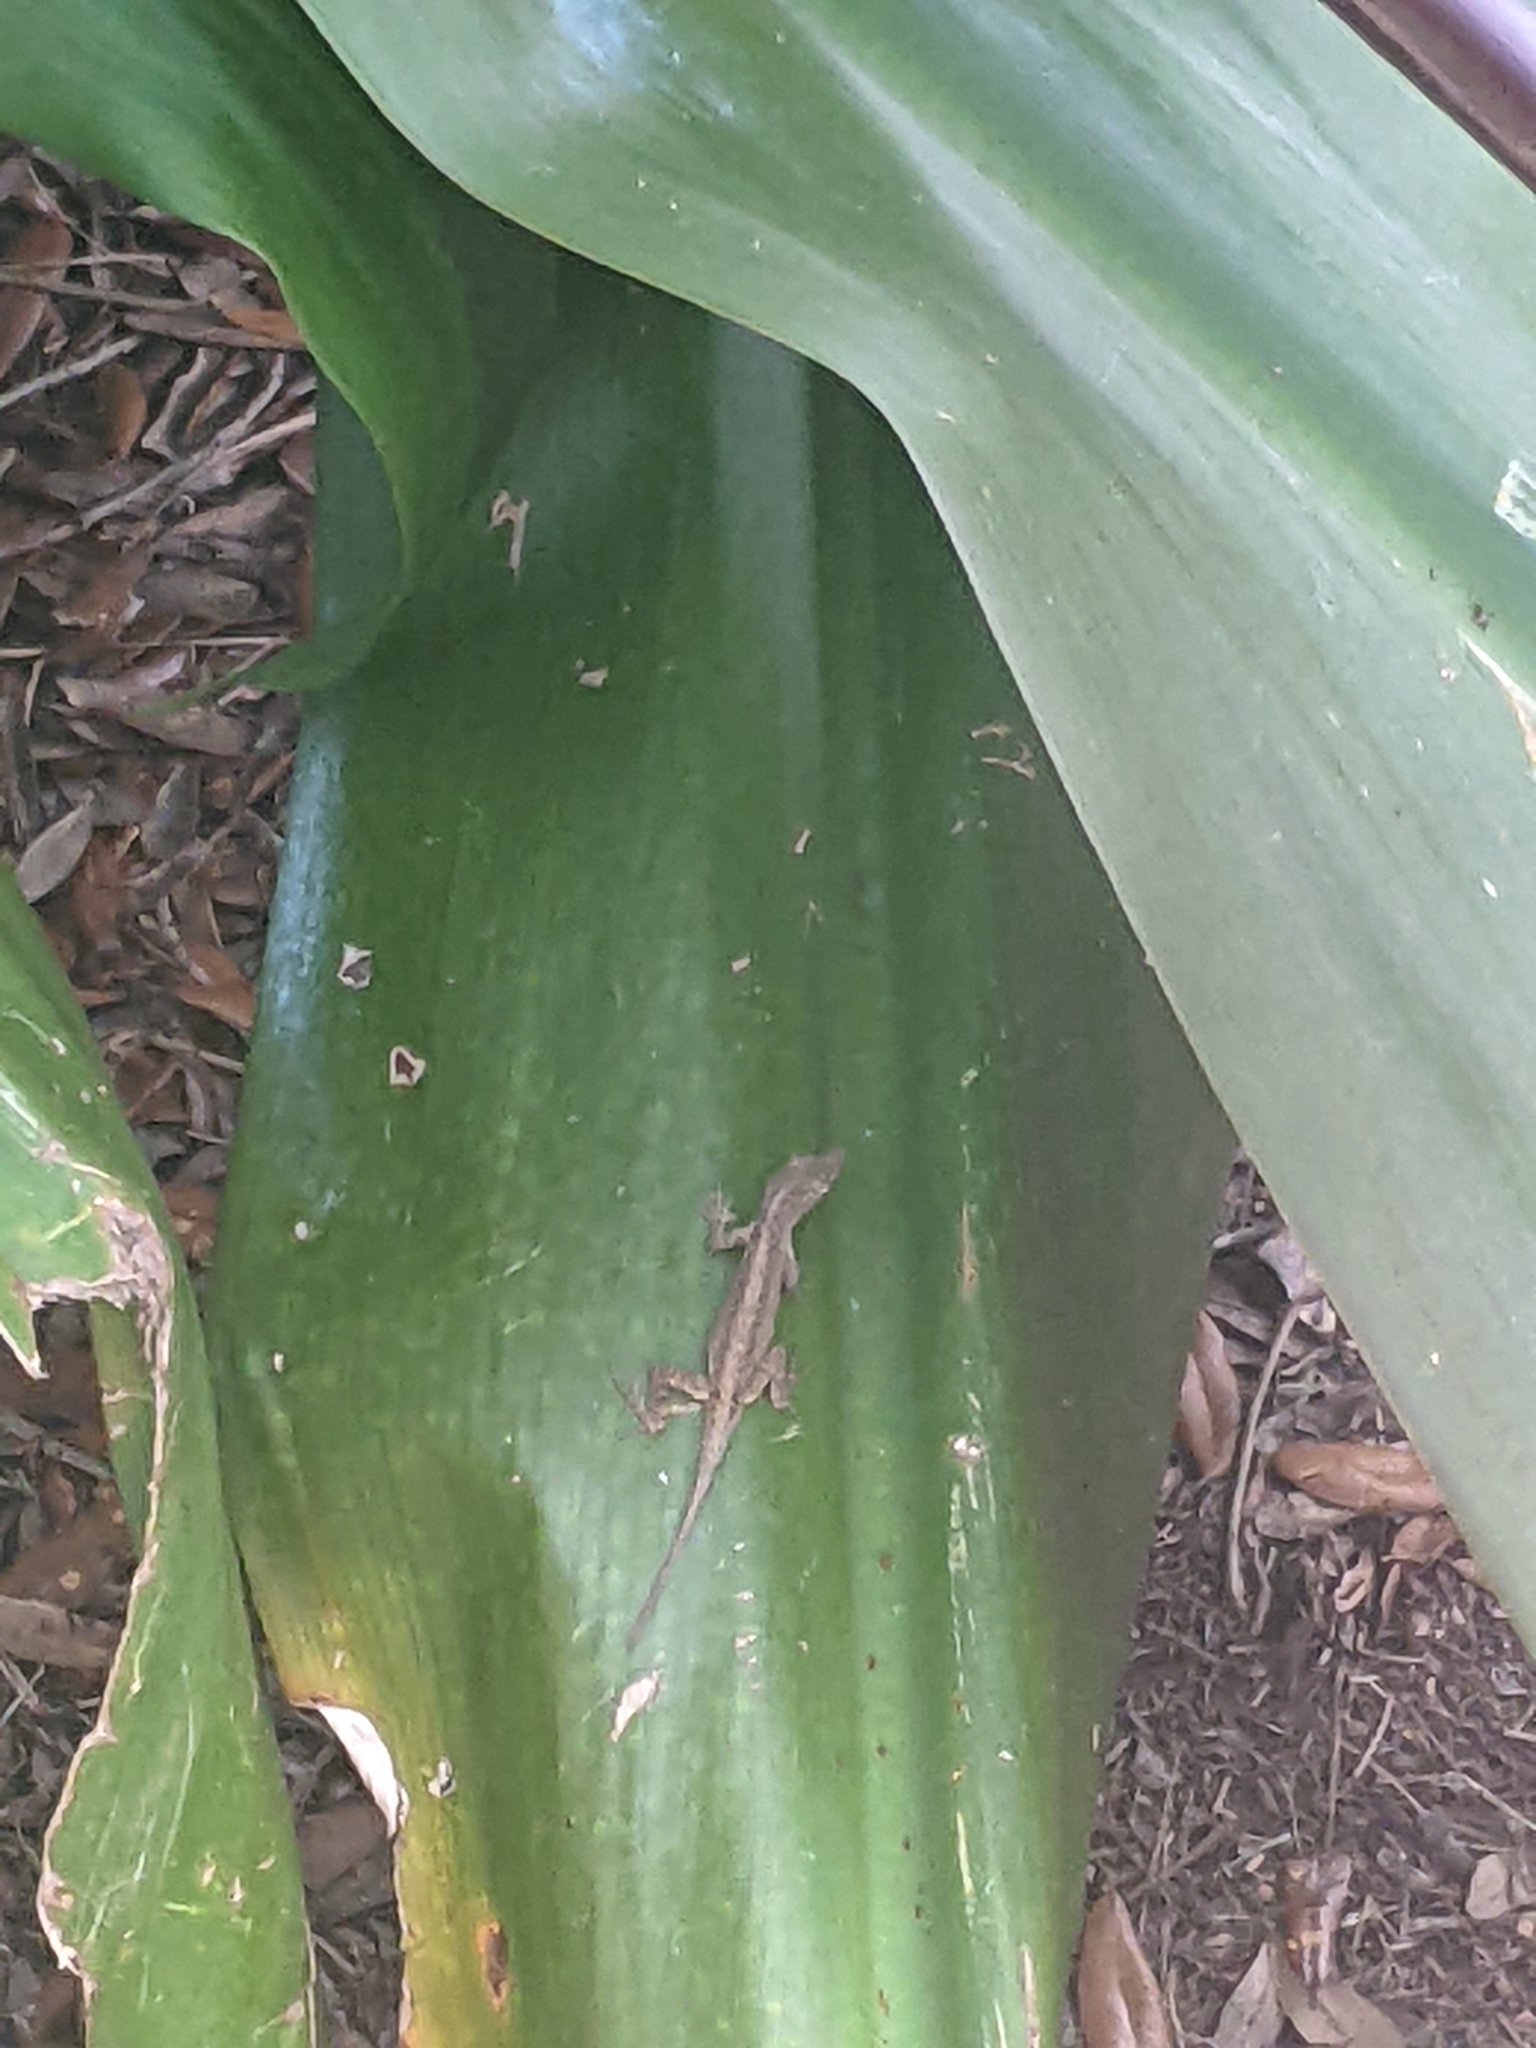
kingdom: Animalia
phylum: Chordata
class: Squamata
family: Dactyloidae
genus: Anolis
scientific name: Anolis sagrei
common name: Brown anole
